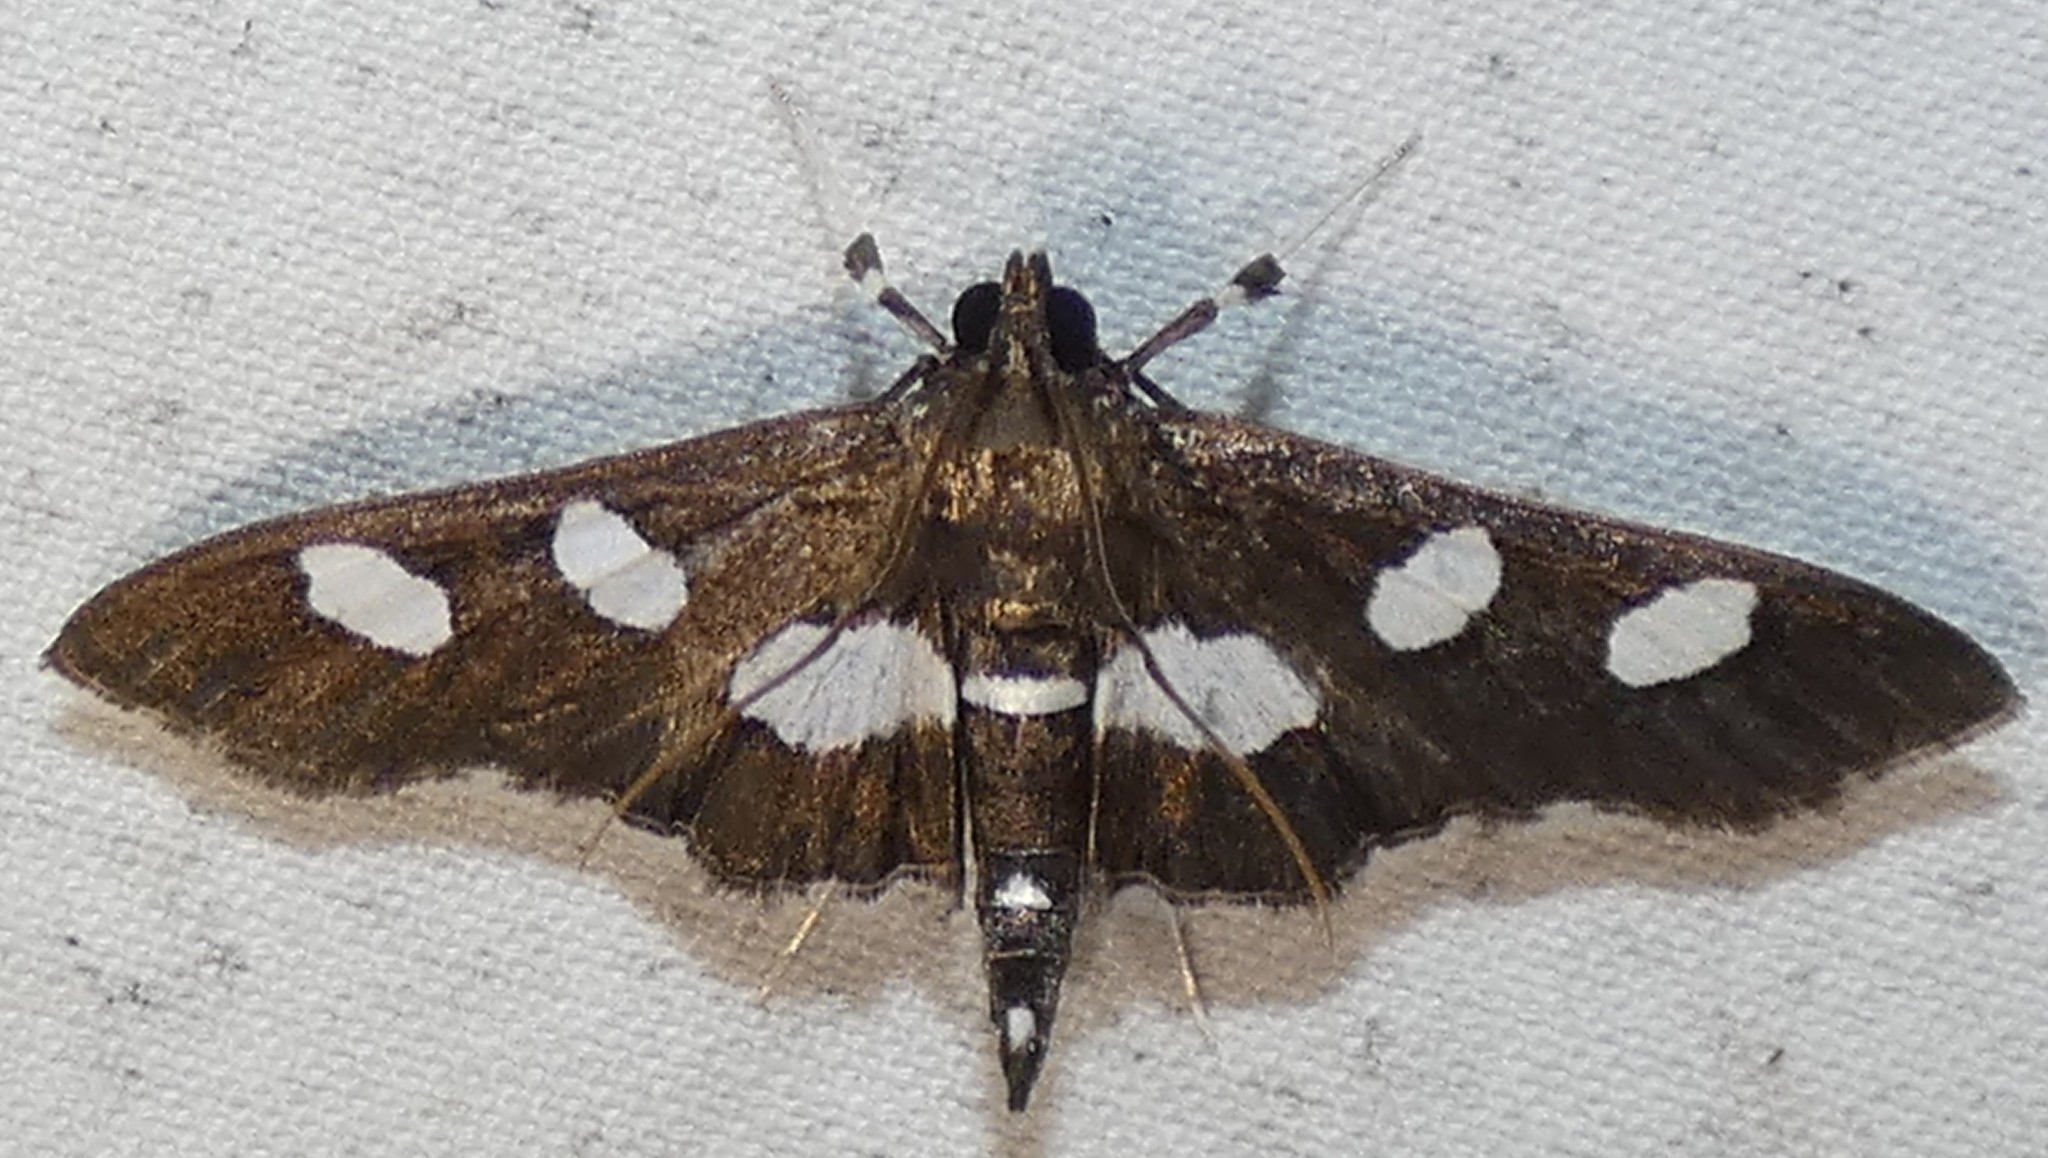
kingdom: Animalia
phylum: Arthropoda
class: Insecta
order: Lepidoptera
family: Crambidae
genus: Desmia
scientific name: Desmia funeralis
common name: Grape leaf folder moth
